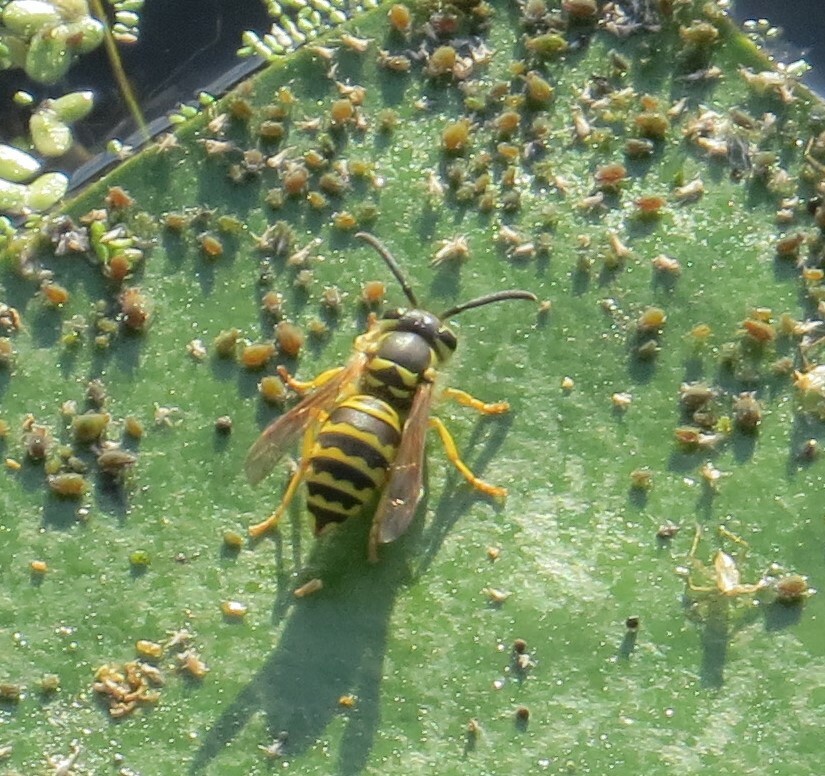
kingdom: Animalia
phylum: Arthropoda
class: Insecta
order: Hymenoptera
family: Vespidae
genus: Vespula
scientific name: Vespula maculifrons
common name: Eastern yellowjacket
